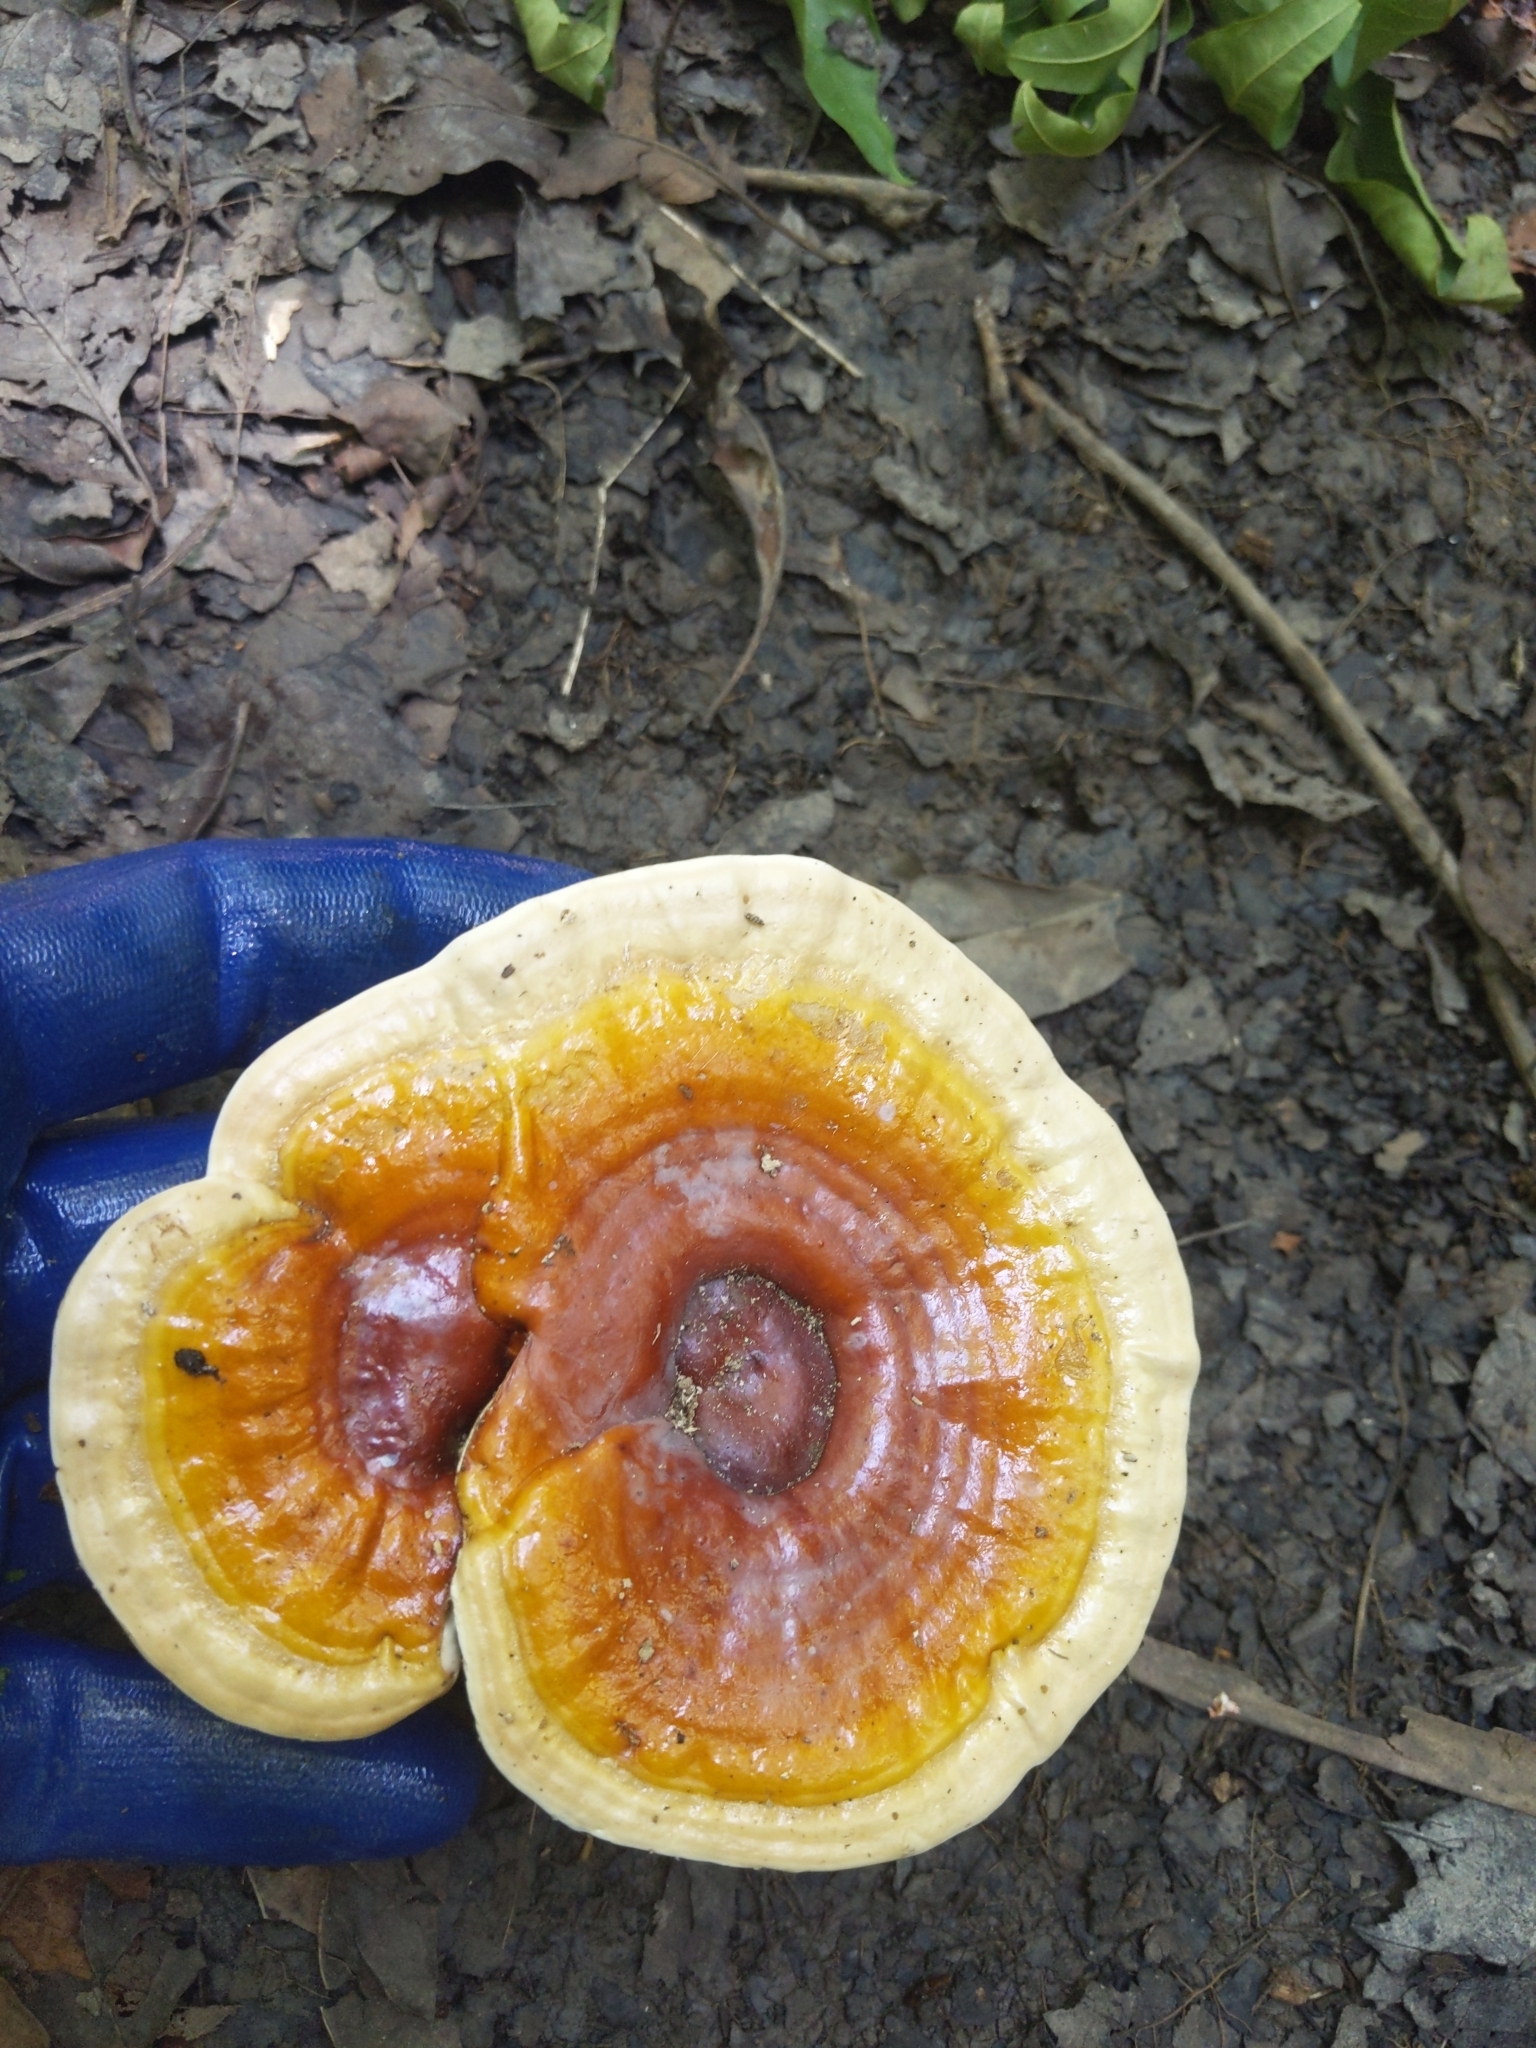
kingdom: Fungi
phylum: Basidiomycota
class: Agaricomycetes
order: Polyporales
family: Polyporaceae
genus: Ganoderma
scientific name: Ganoderma curtisii
